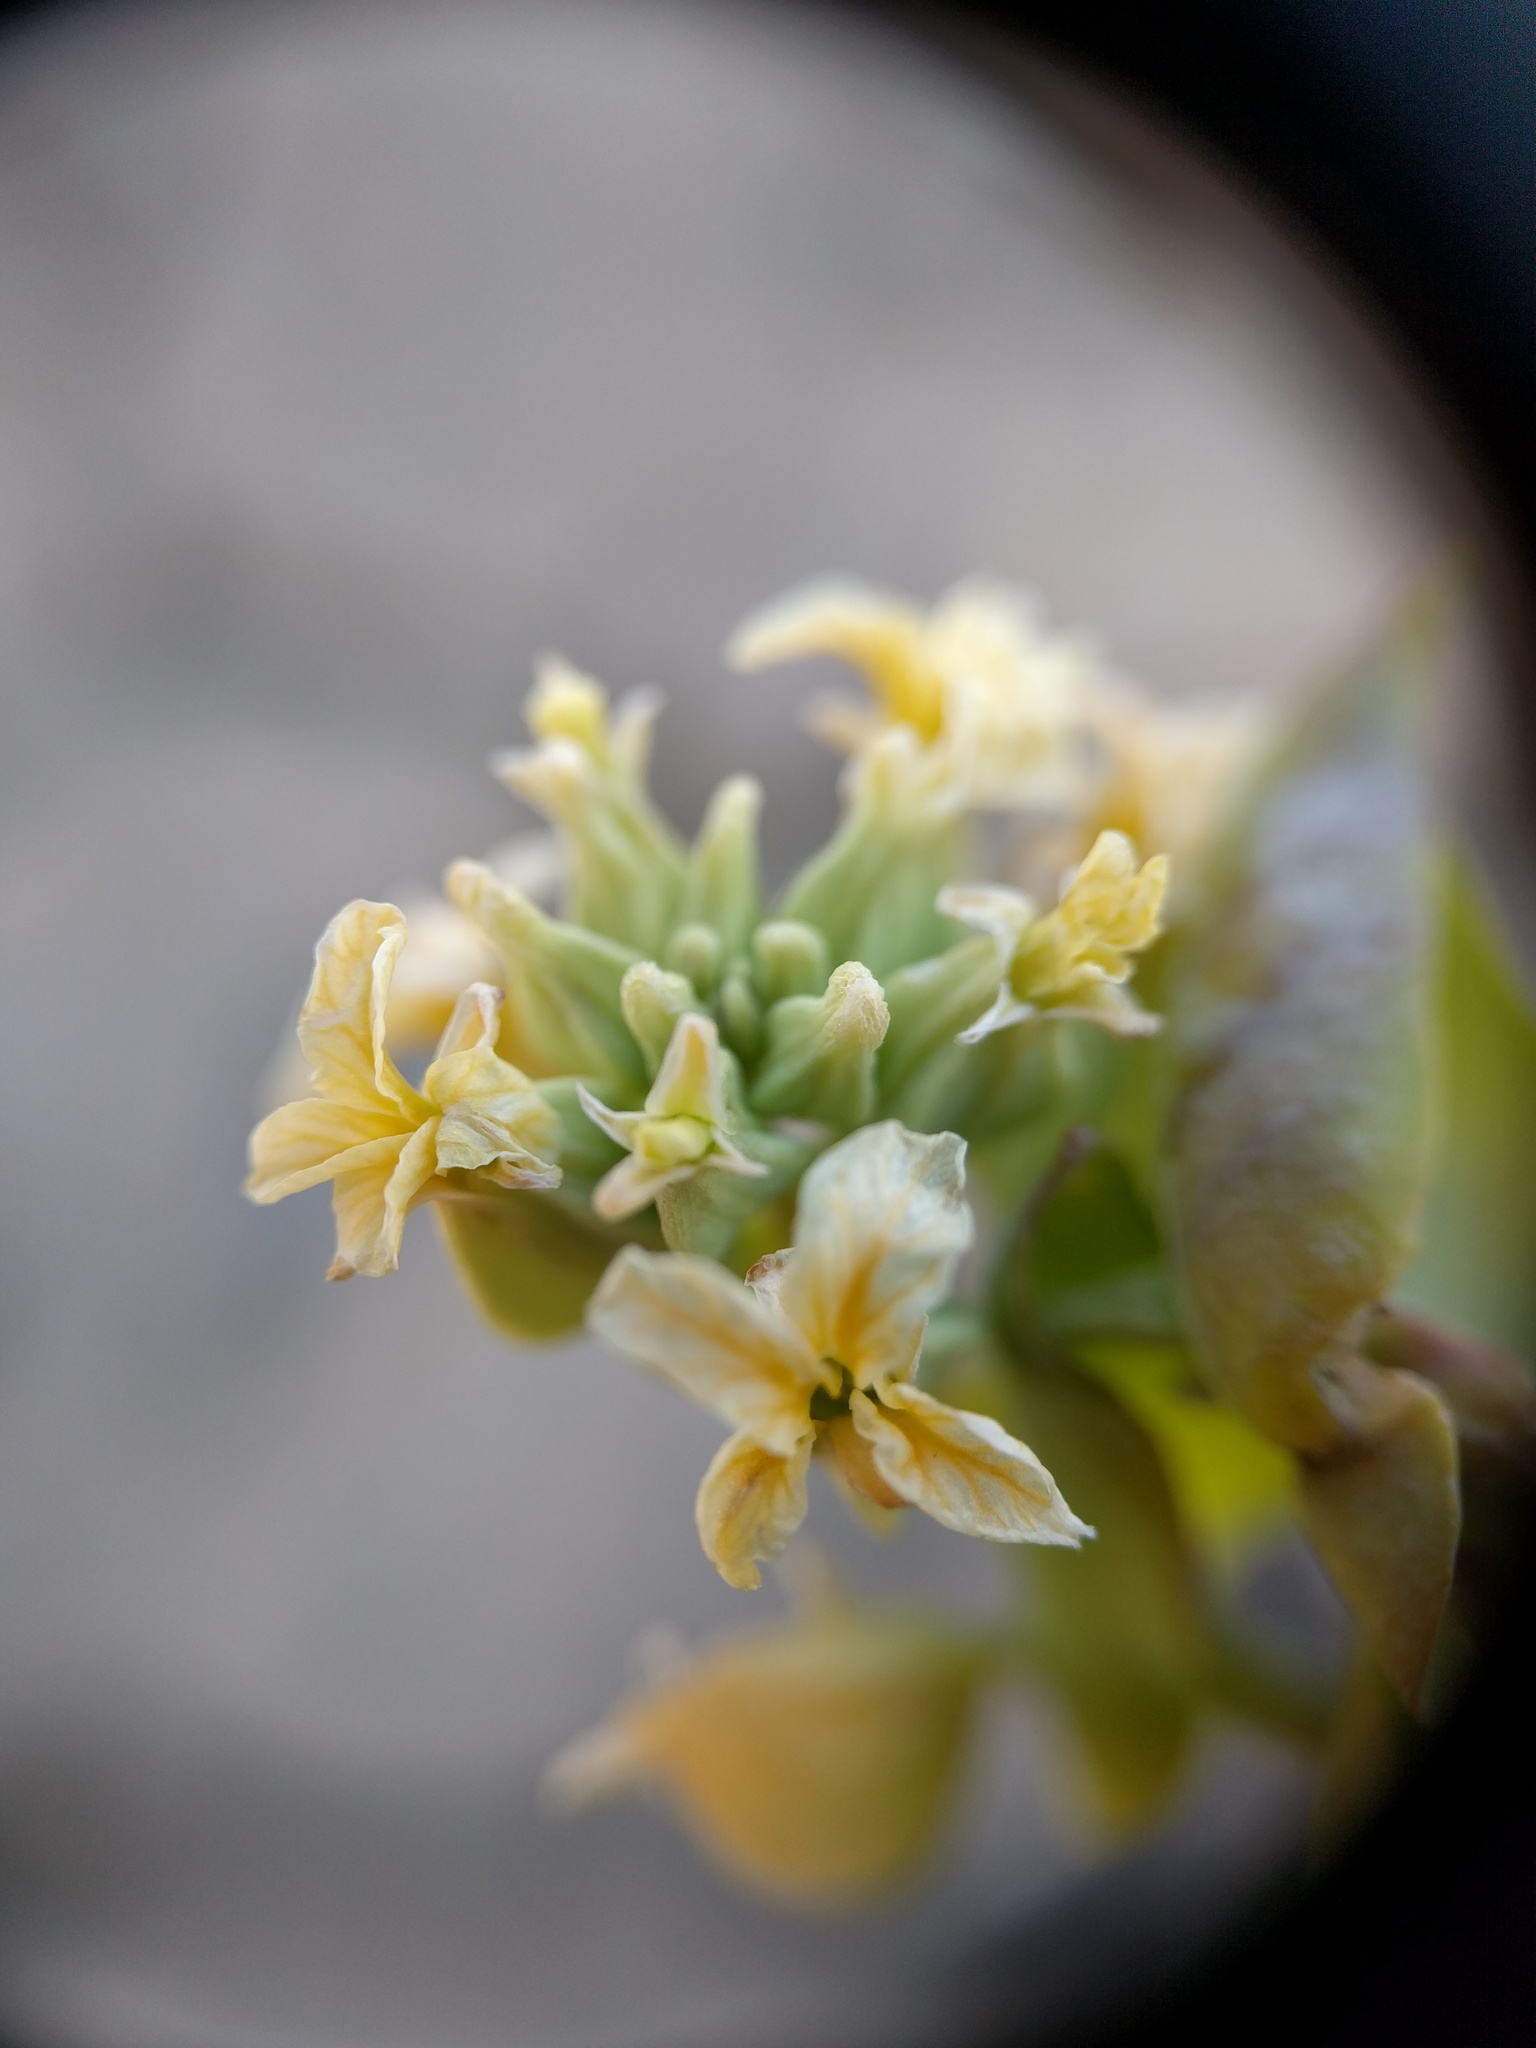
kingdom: Plantae
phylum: Tracheophyta
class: Magnoliopsida
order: Brassicales
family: Brassicaceae
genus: Streptanthus
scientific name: Streptanthus diversifolius
